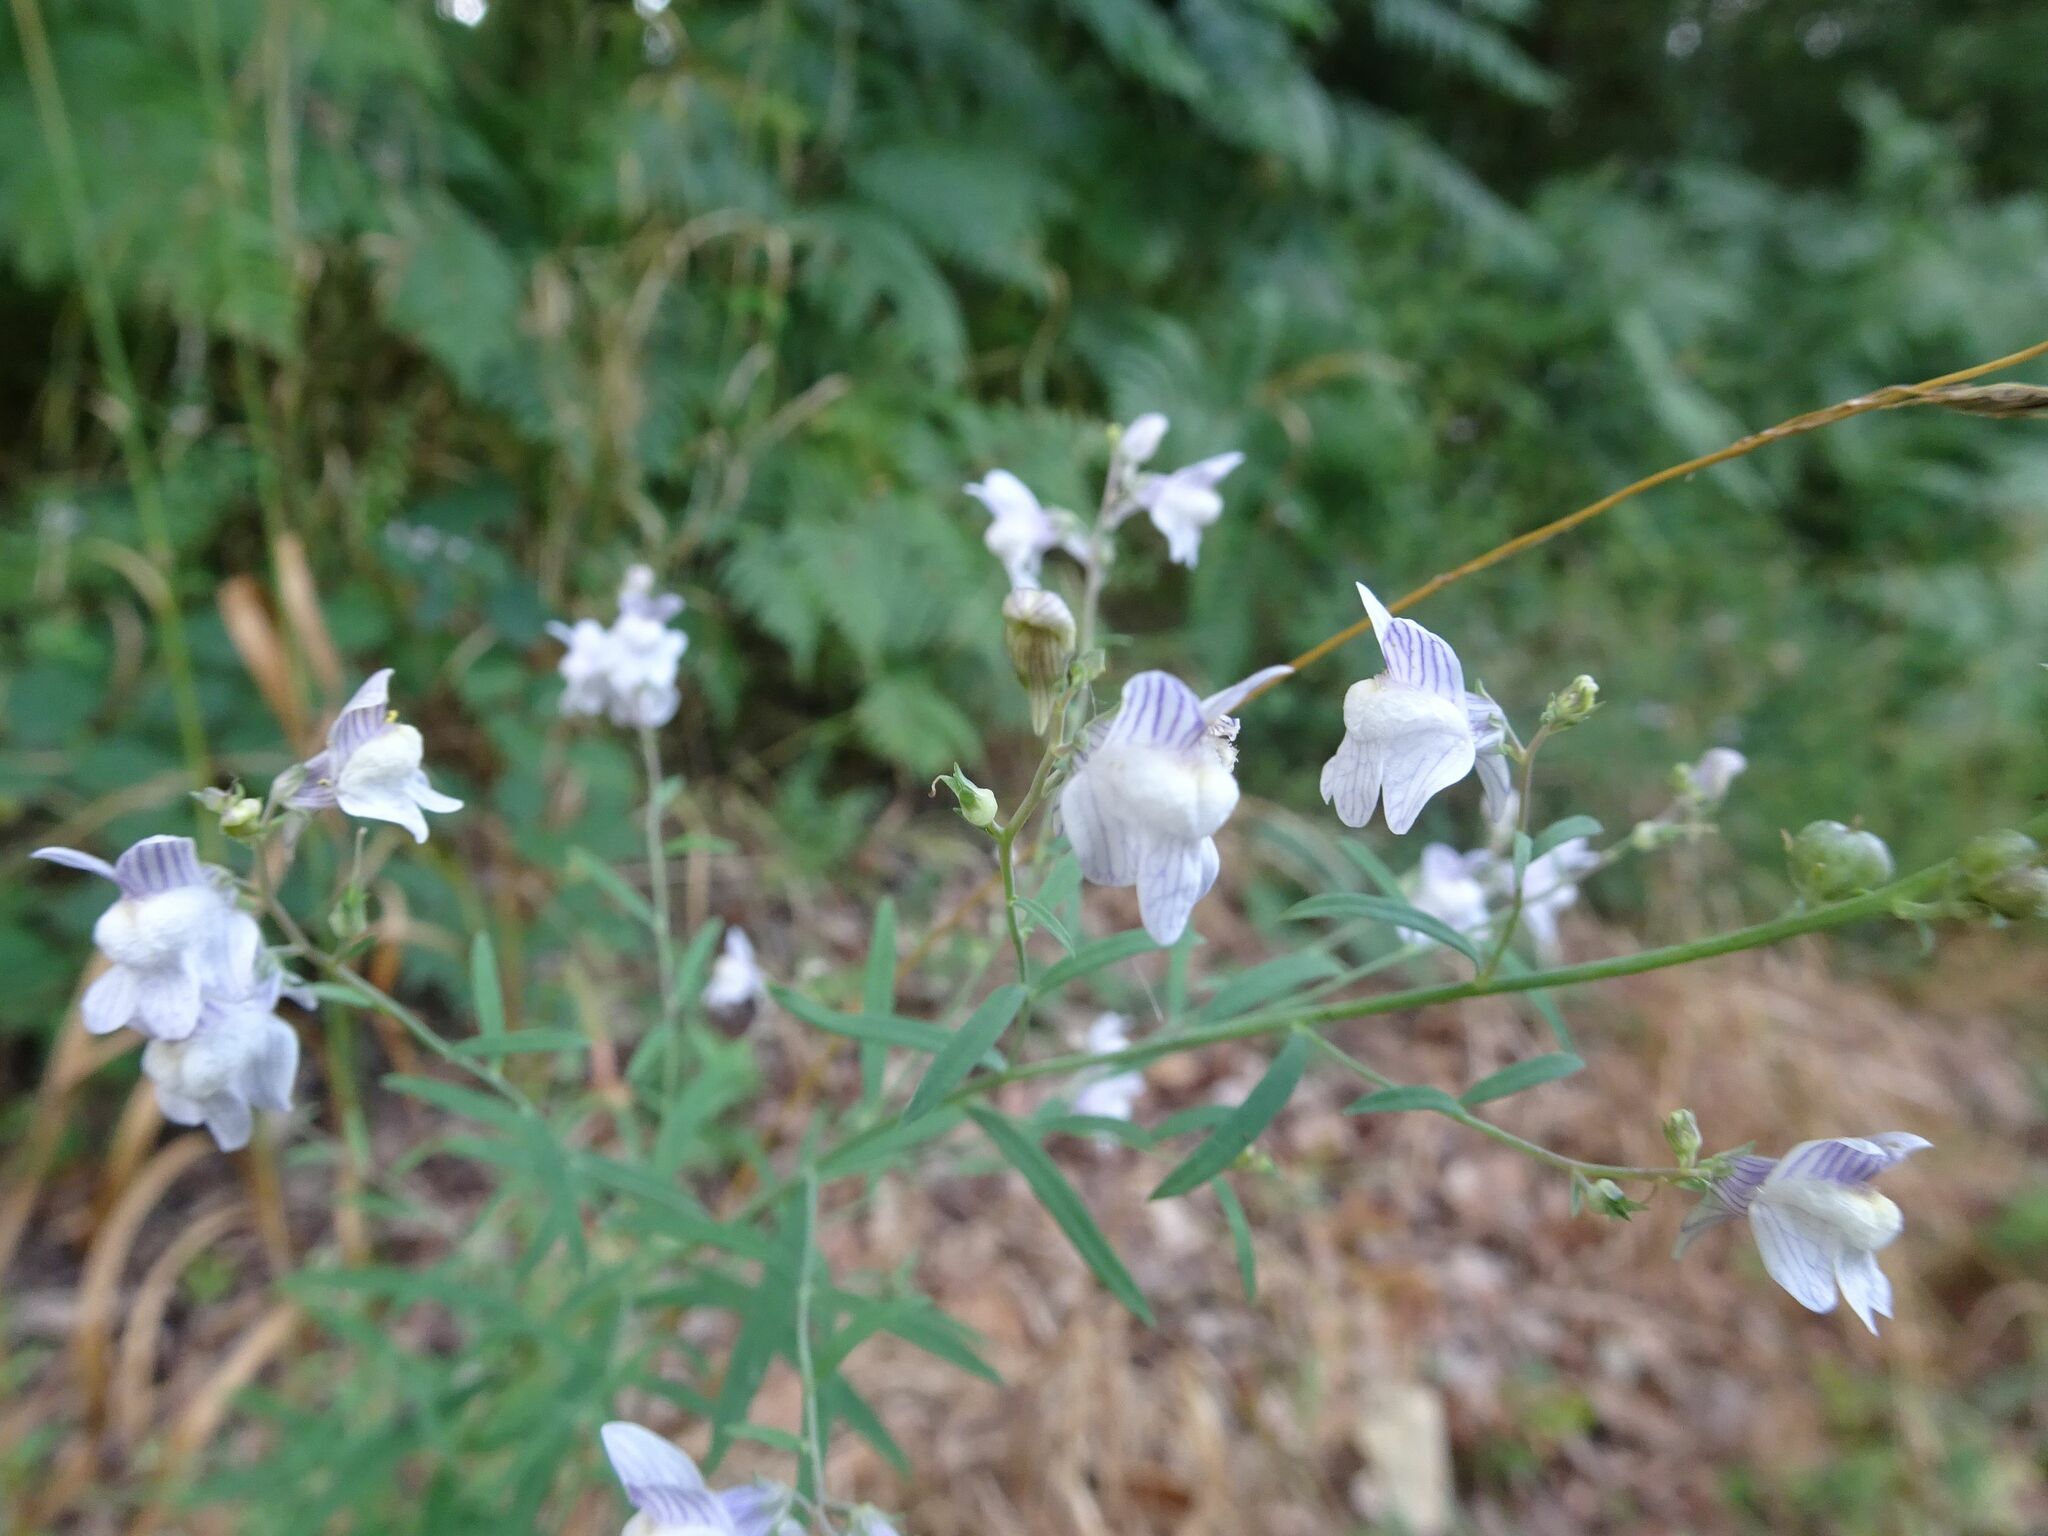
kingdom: Plantae
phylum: Tracheophyta
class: Magnoliopsida
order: Lamiales
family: Plantaginaceae
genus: Linaria
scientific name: Linaria repens
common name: Pale toadflax
